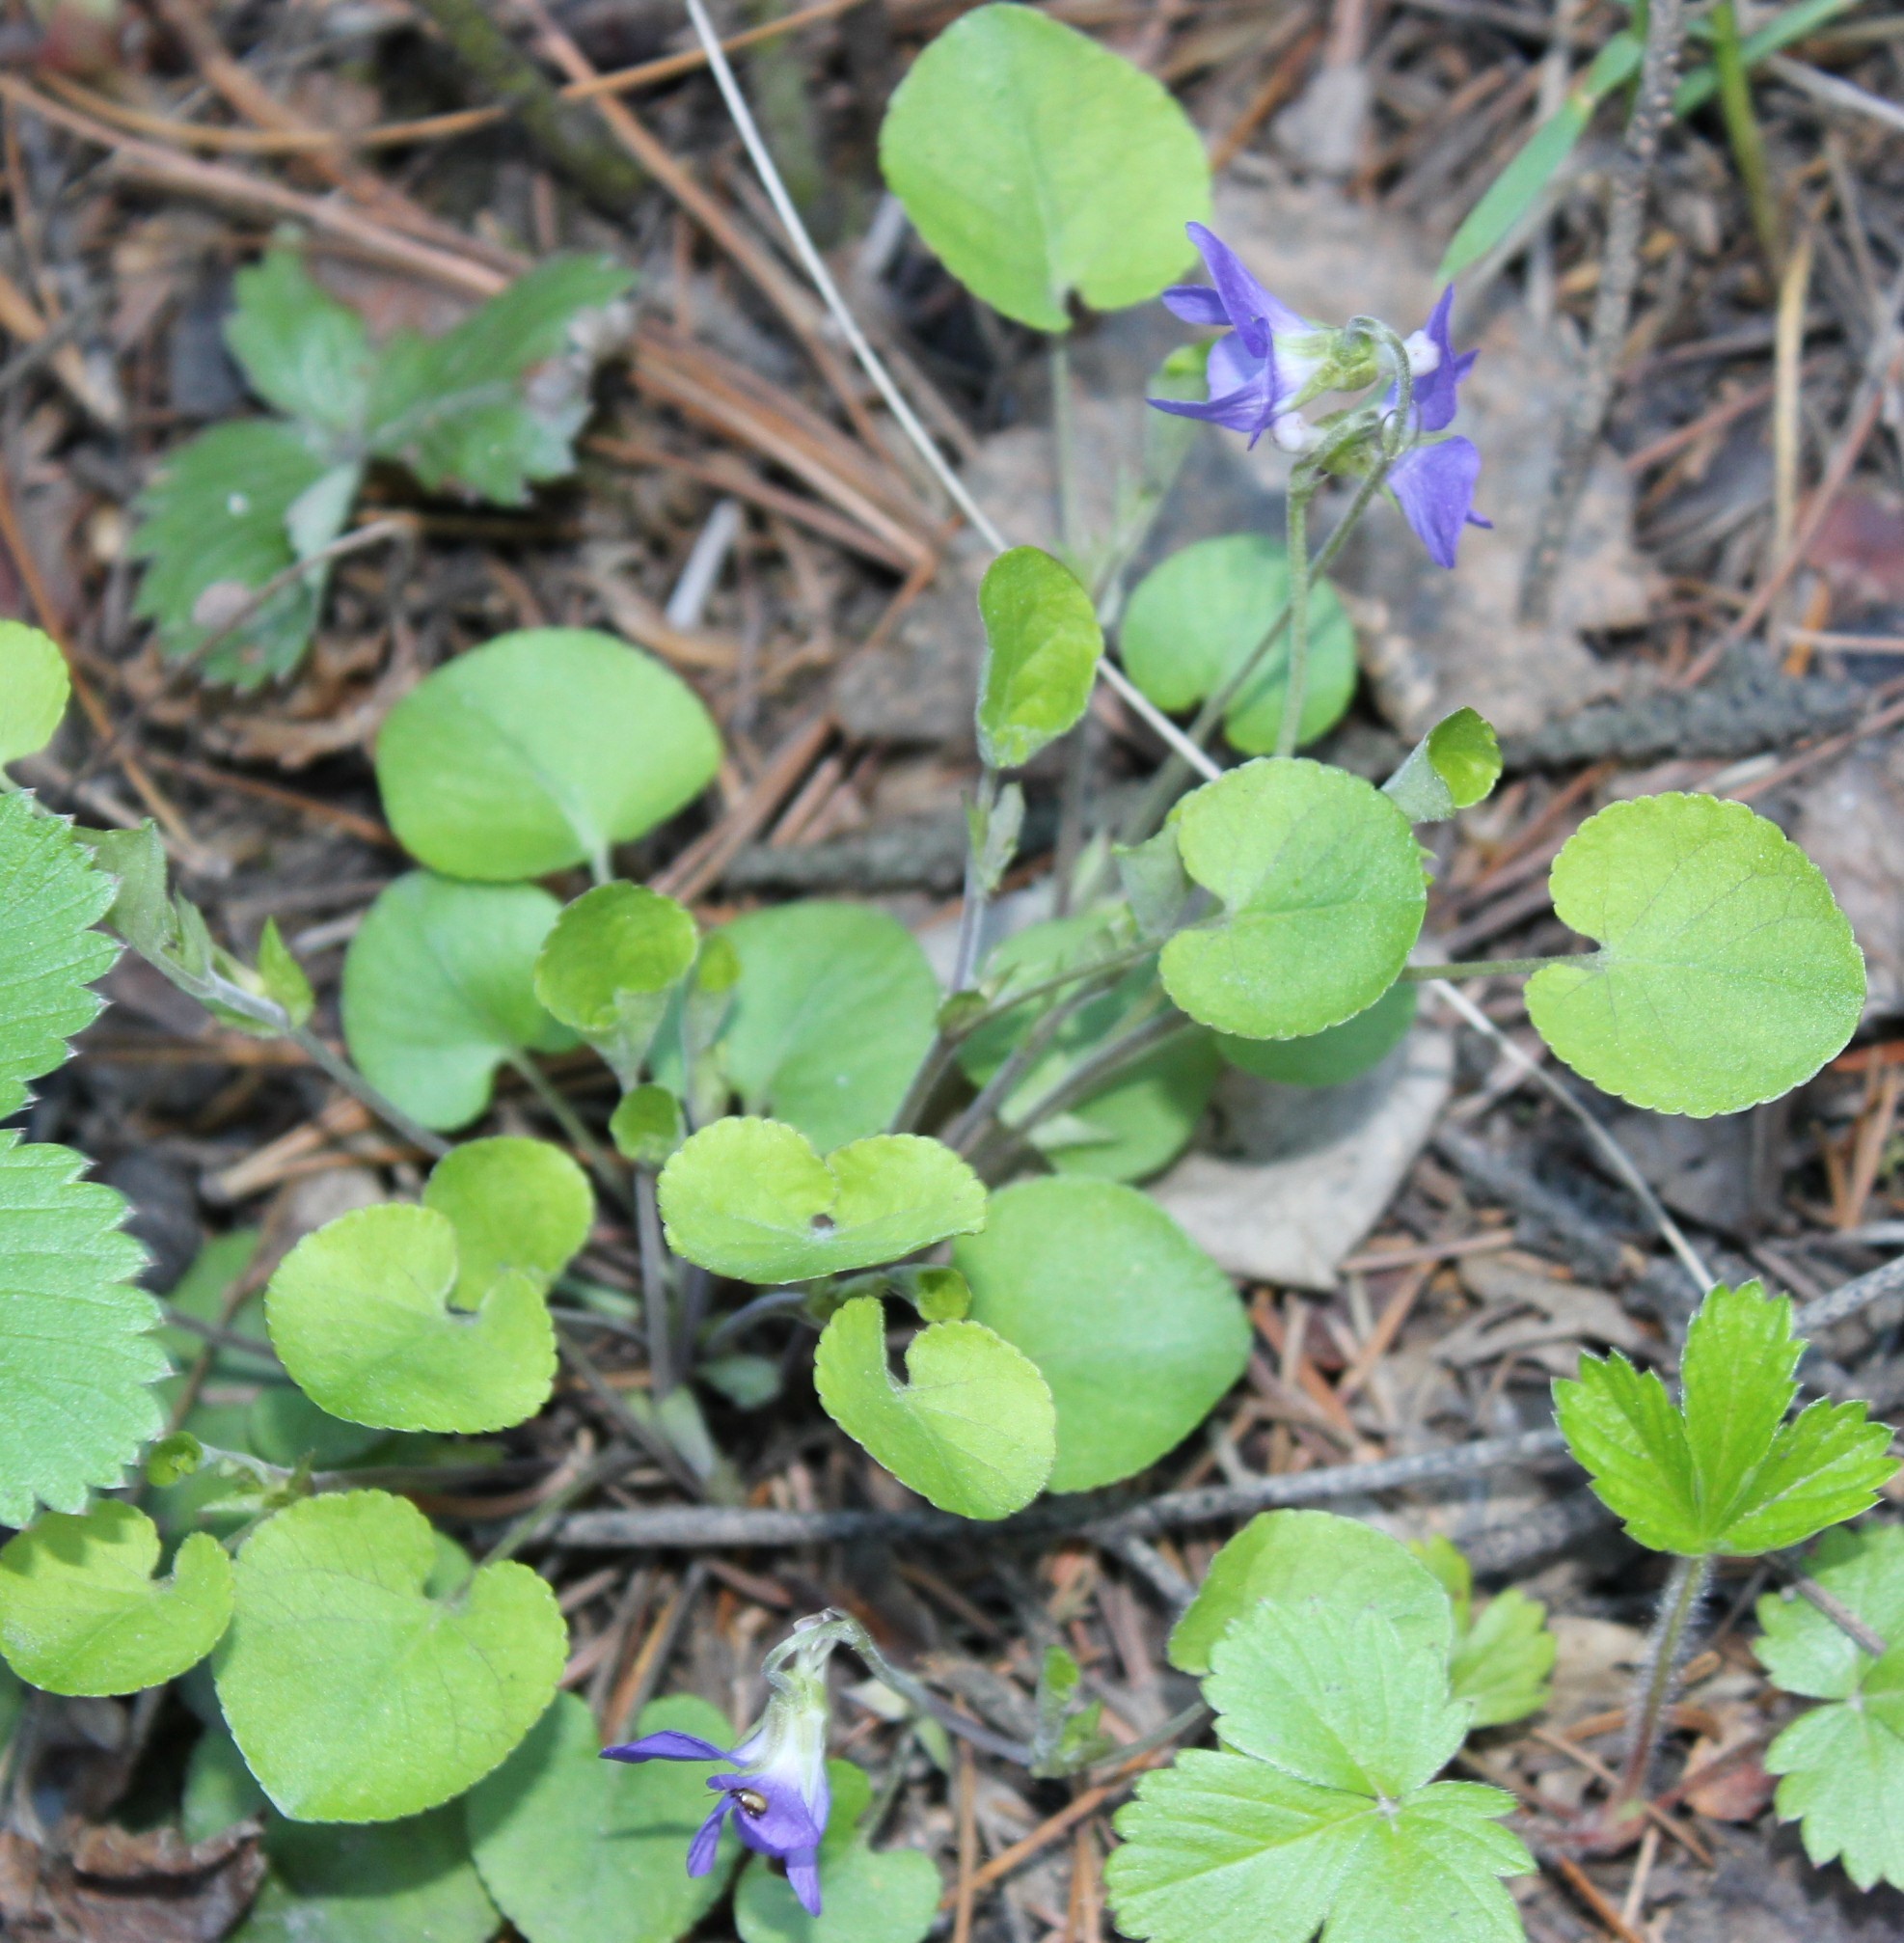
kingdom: Plantae
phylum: Tracheophyta
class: Magnoliopsida
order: Malpighiales
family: Violaceae
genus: Viola
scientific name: Viola rupestris
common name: Teesdale violet
